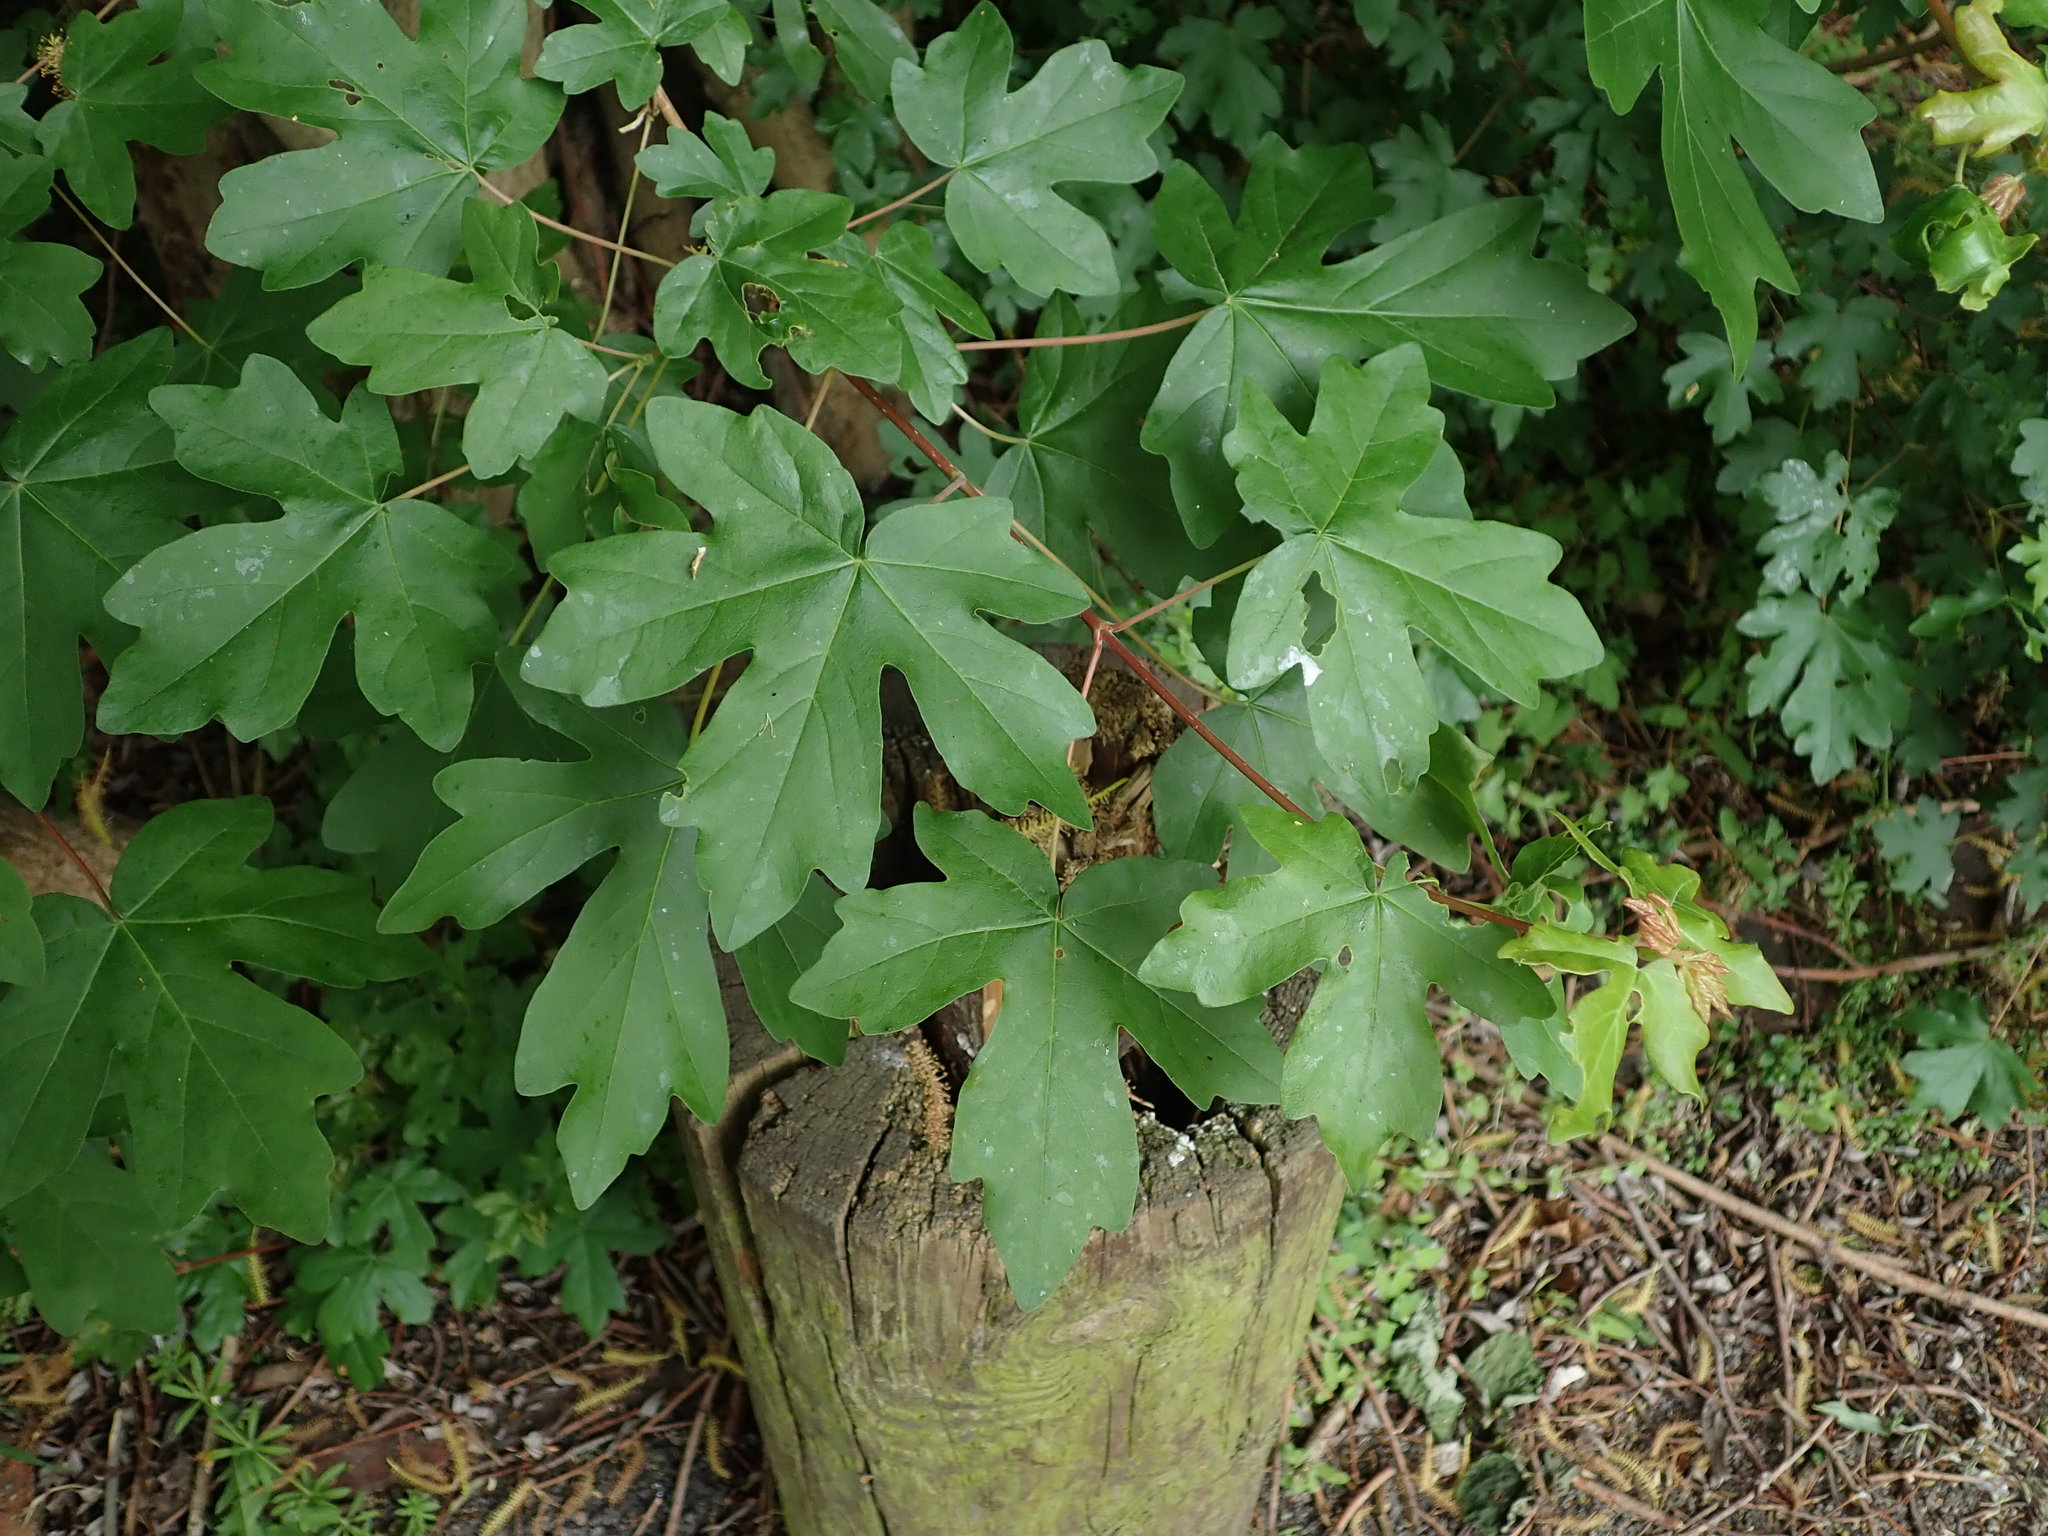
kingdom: Plantae
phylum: Tracheophyta
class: Magnoliopsida
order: Sapindales
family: Sapindaceae
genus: Acer
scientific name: Acer campestre
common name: Field maple
